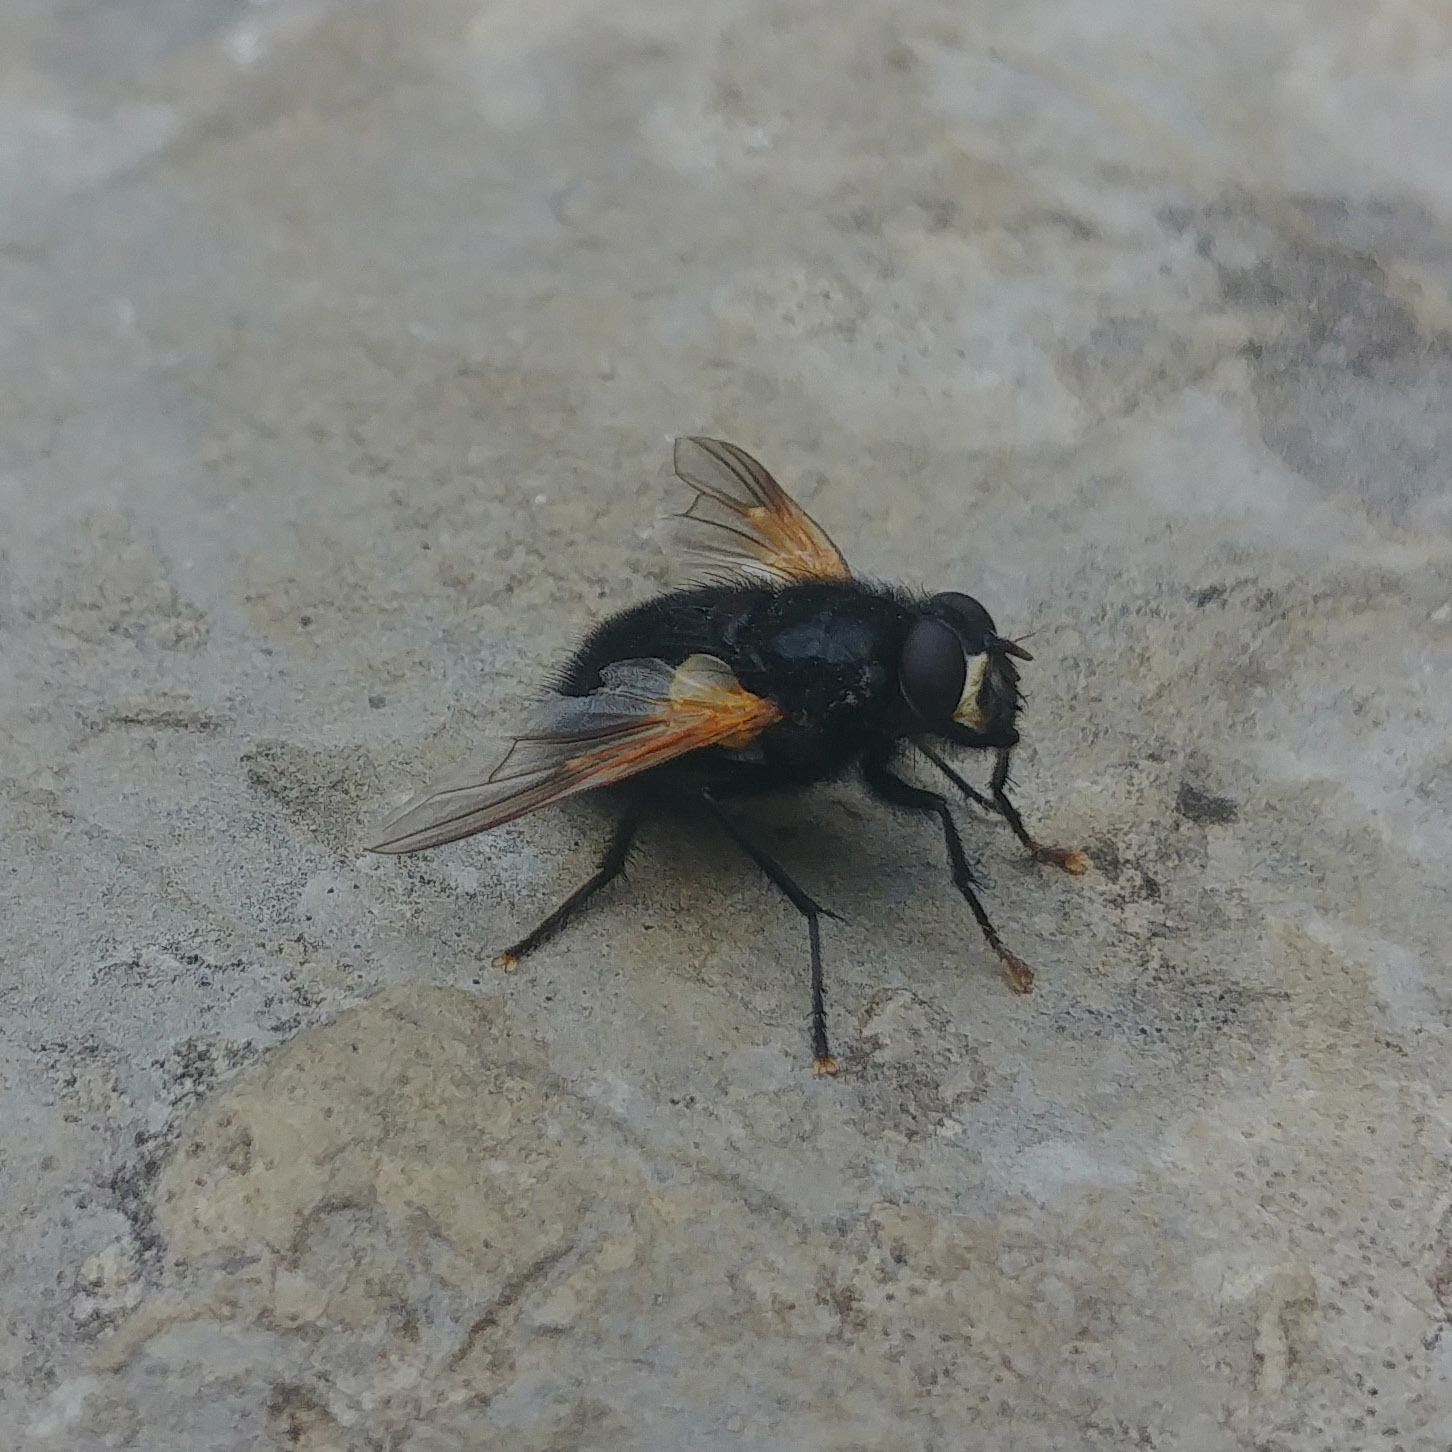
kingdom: Animalia
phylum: Arthropoda
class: Insecta
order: Diptera
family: Muscidae
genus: Mesembrina
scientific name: Mesembrina meridiana
